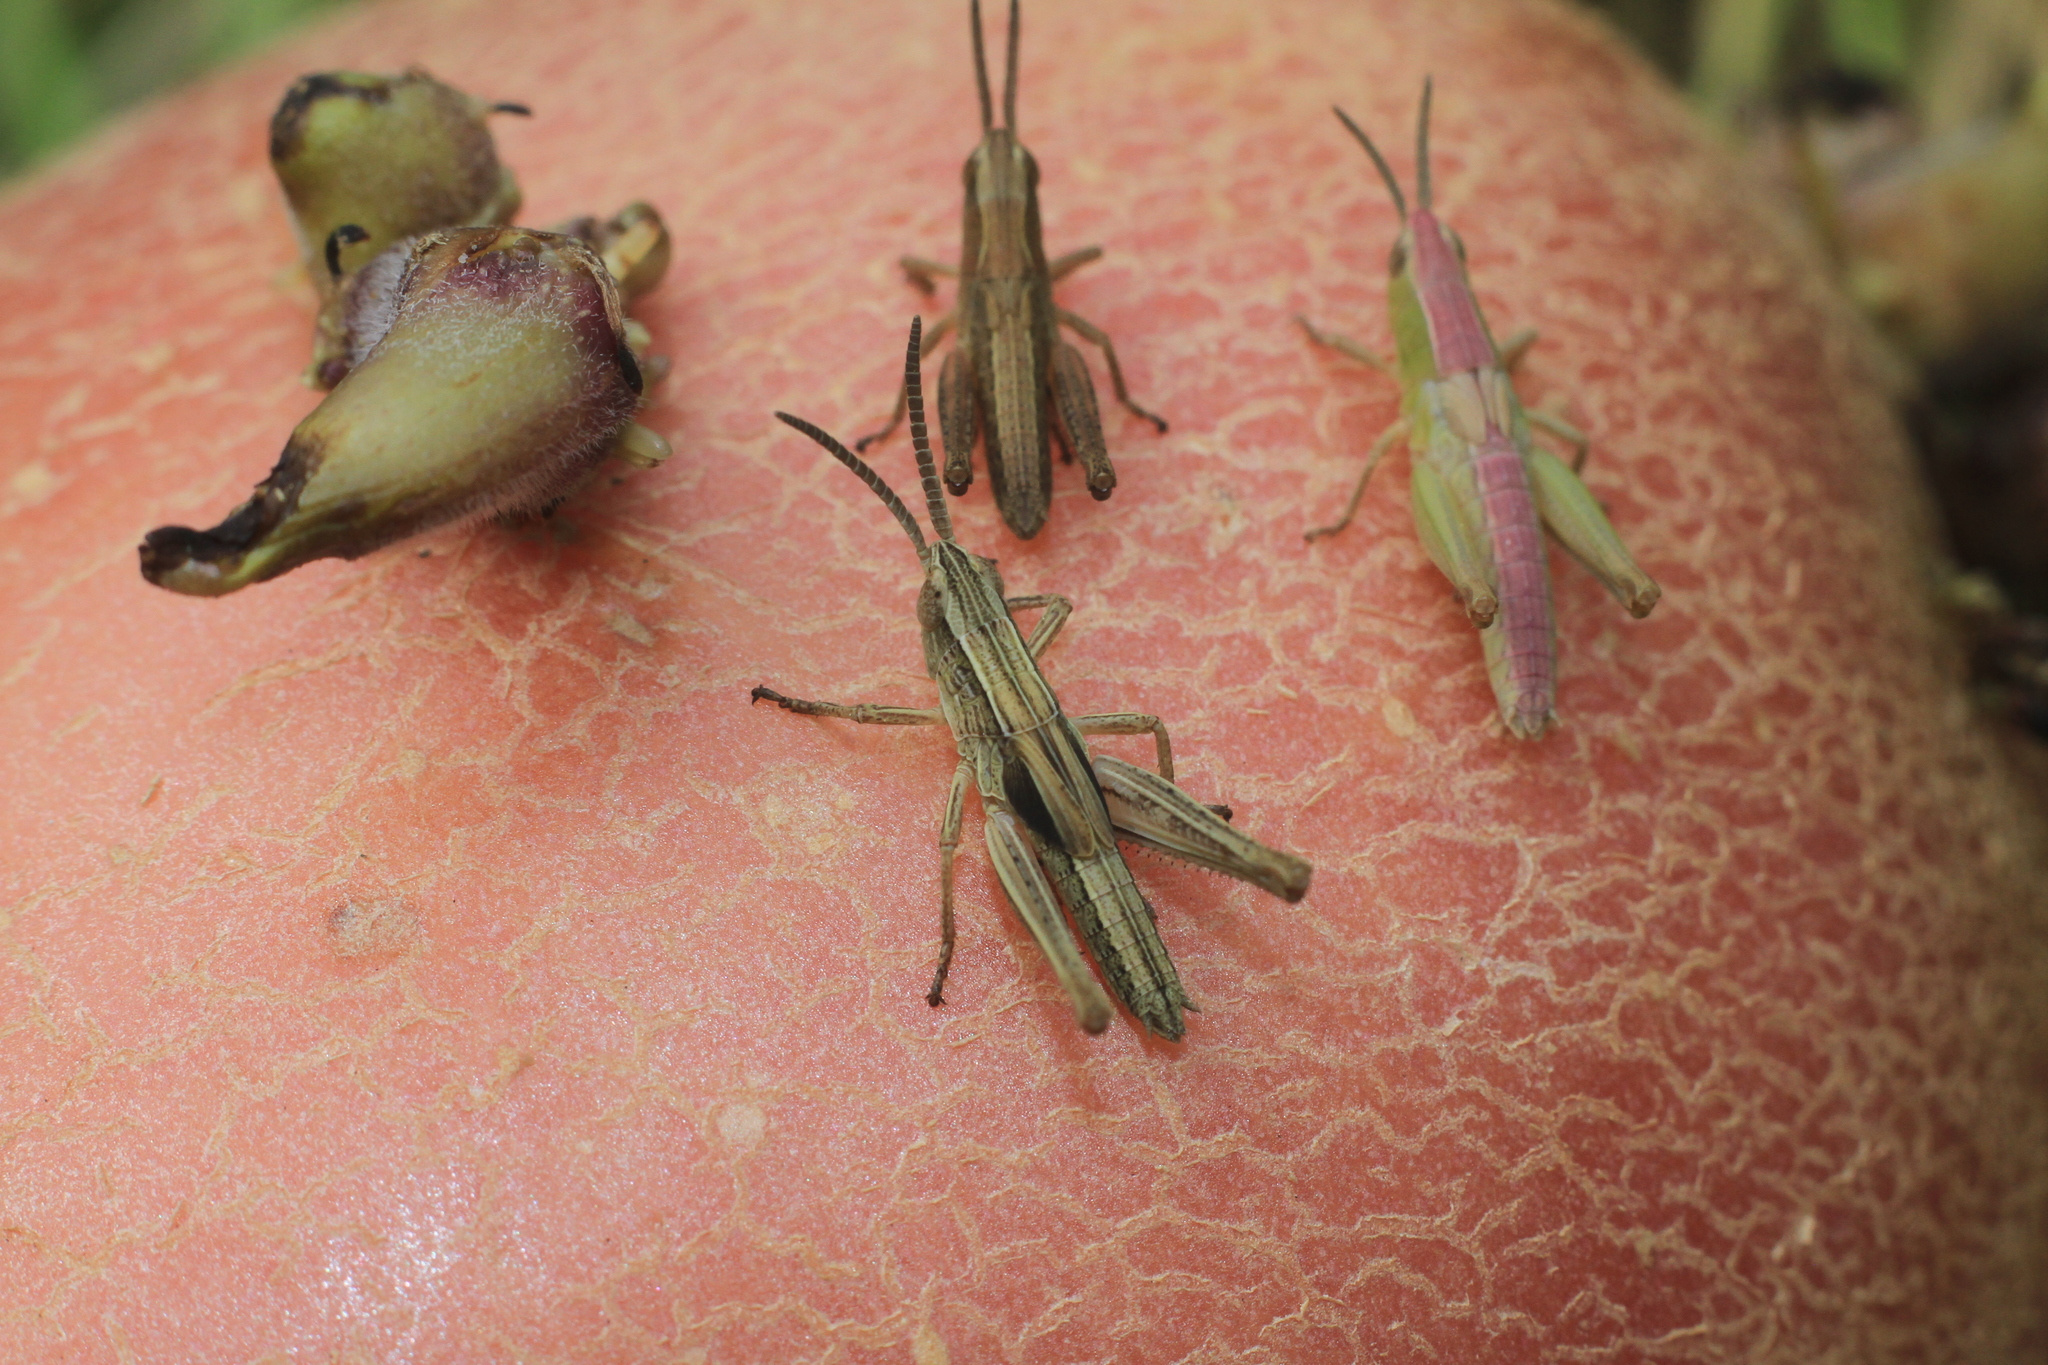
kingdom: Animalia
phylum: Arthropoda
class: Insecta
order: Orthoptera
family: Acrididae
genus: Chorthippus
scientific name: Chorthippus albomarginatus
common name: Lesser marsh grasshopper
